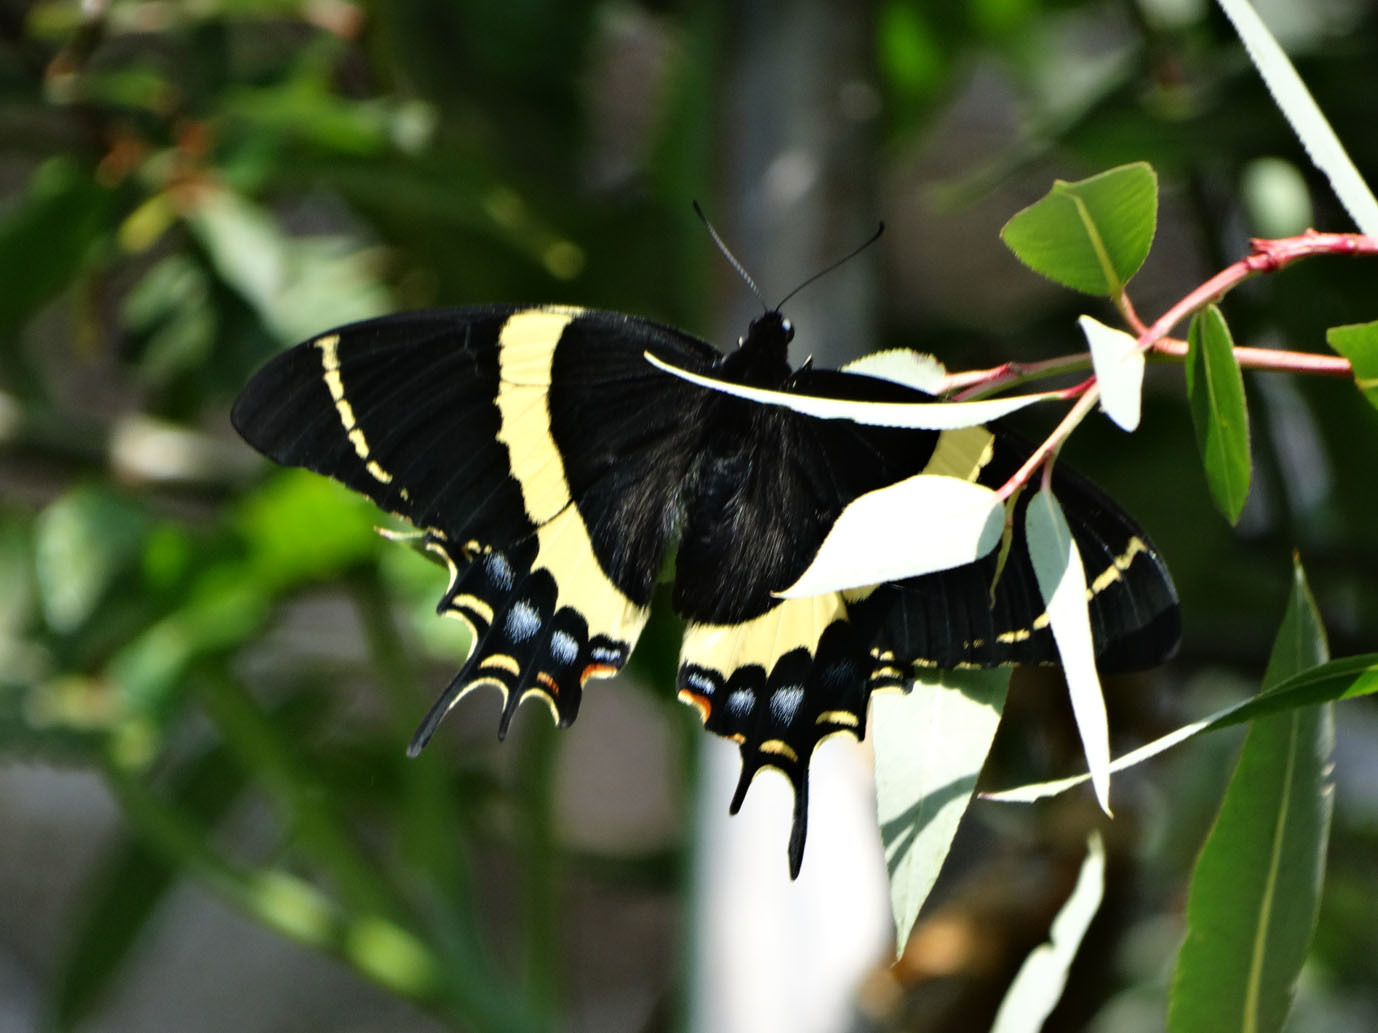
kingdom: Animalia
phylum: Arthropoda
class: Insecta
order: Lepidoptera
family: Papilionidae
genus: Papilio
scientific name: Papilio garamas
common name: Magnificent swallowtail
